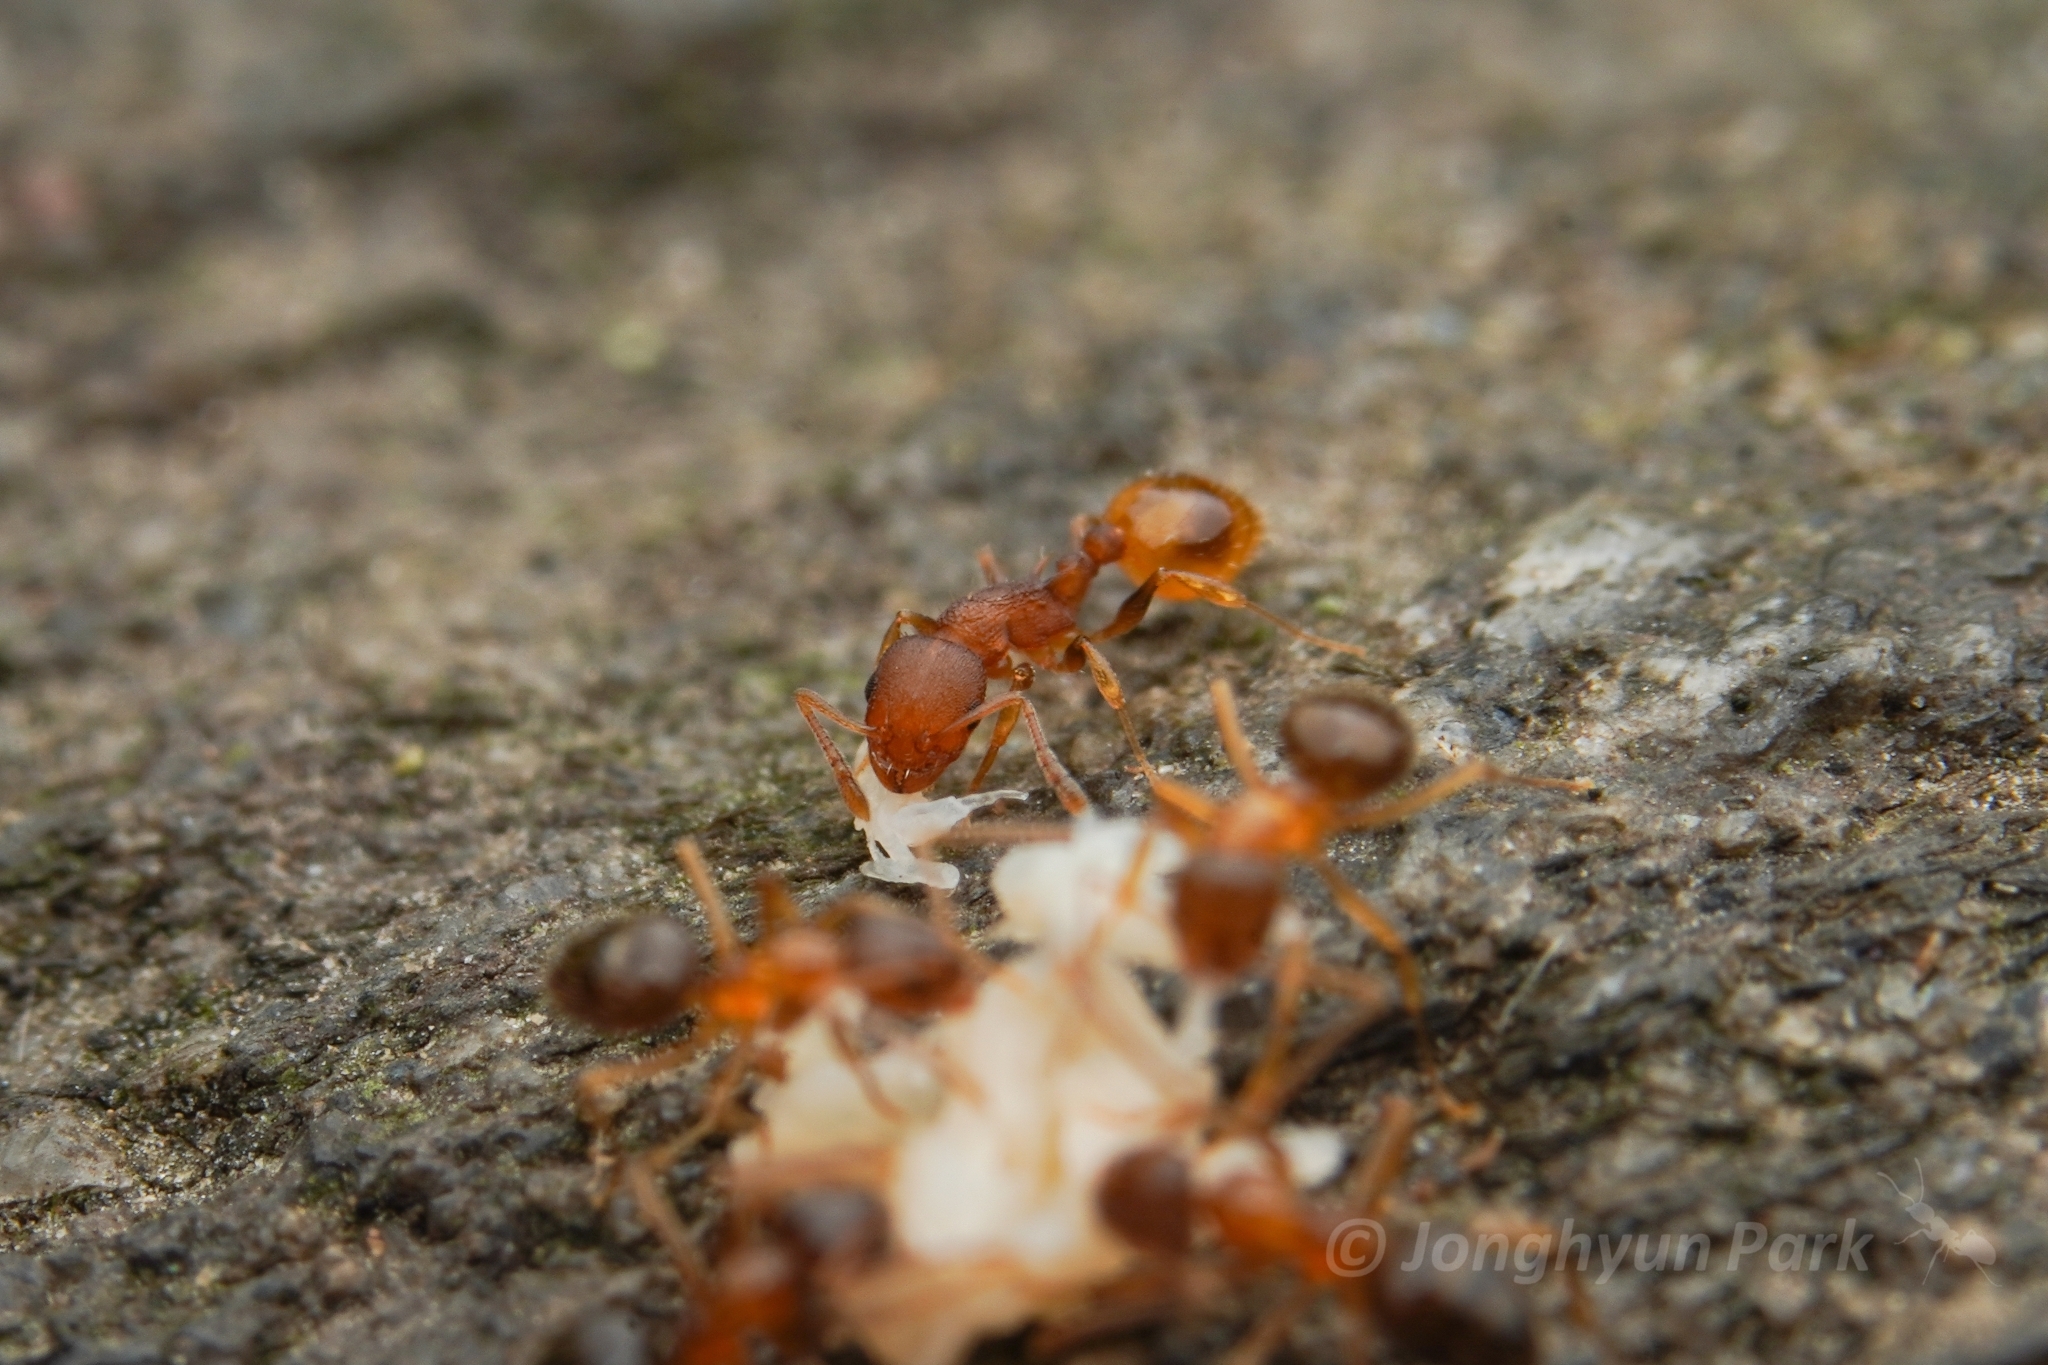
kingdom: Animalia
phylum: Arthropoda
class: Insecta
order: Hymenoptera
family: Formicidae
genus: Temnothorax
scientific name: Temnothorax curvispinosus
